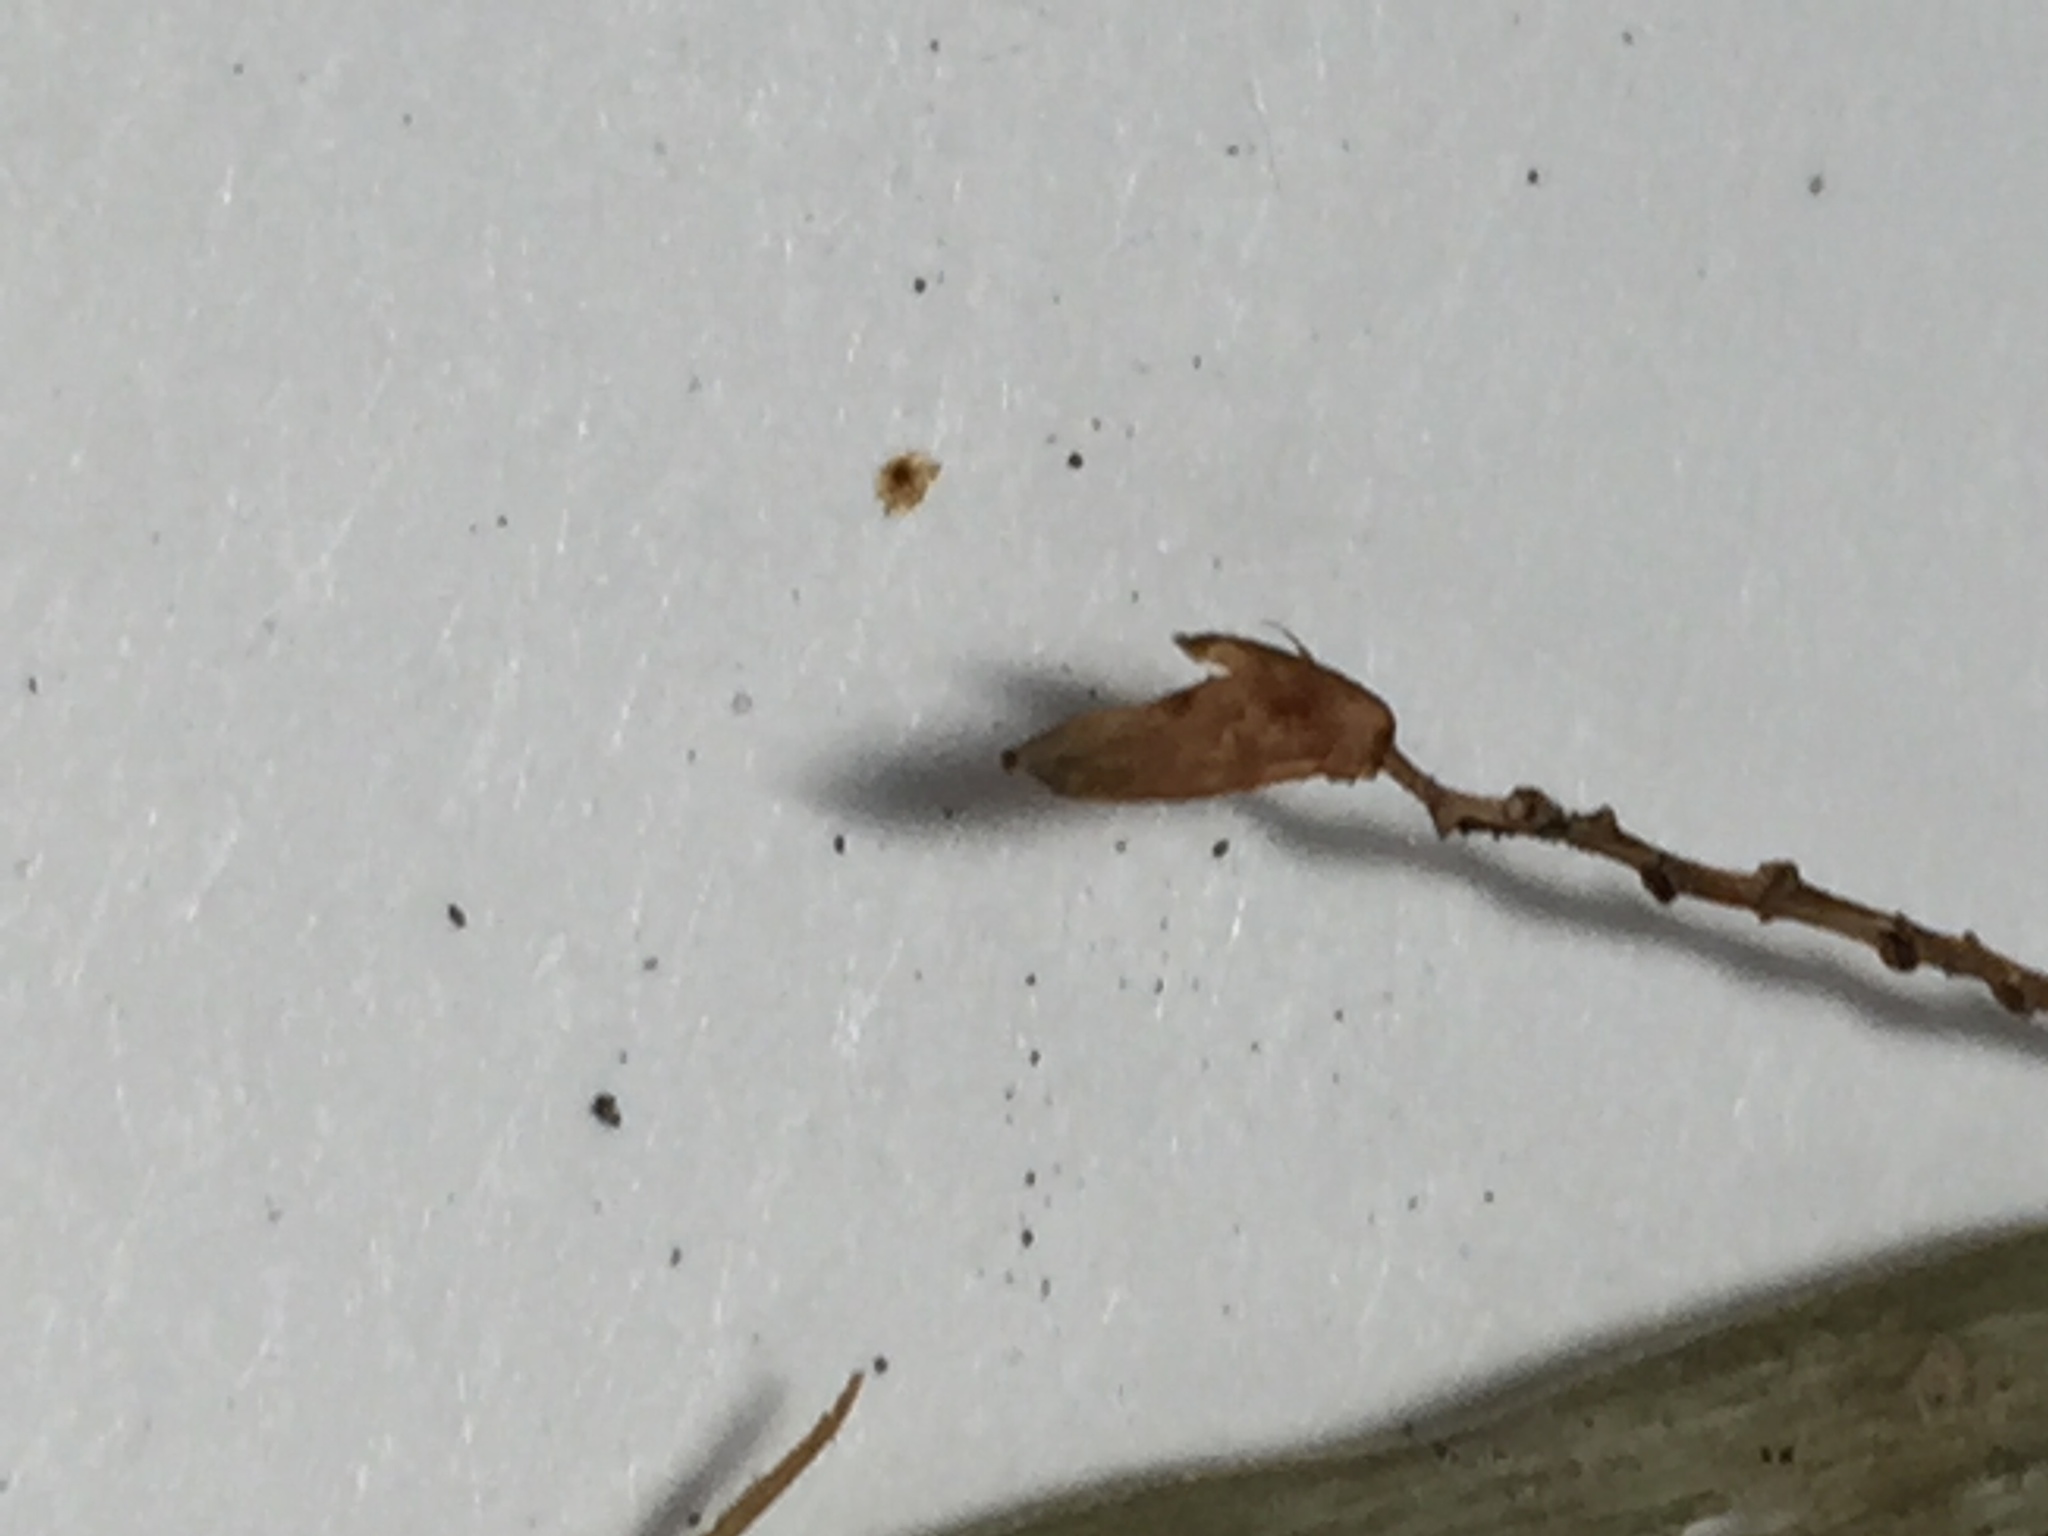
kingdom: Plantae
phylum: Tracheophyta
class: Liliopsida
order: Poales
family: Cyperaceae
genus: Carex
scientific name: Carex flaccosperma
